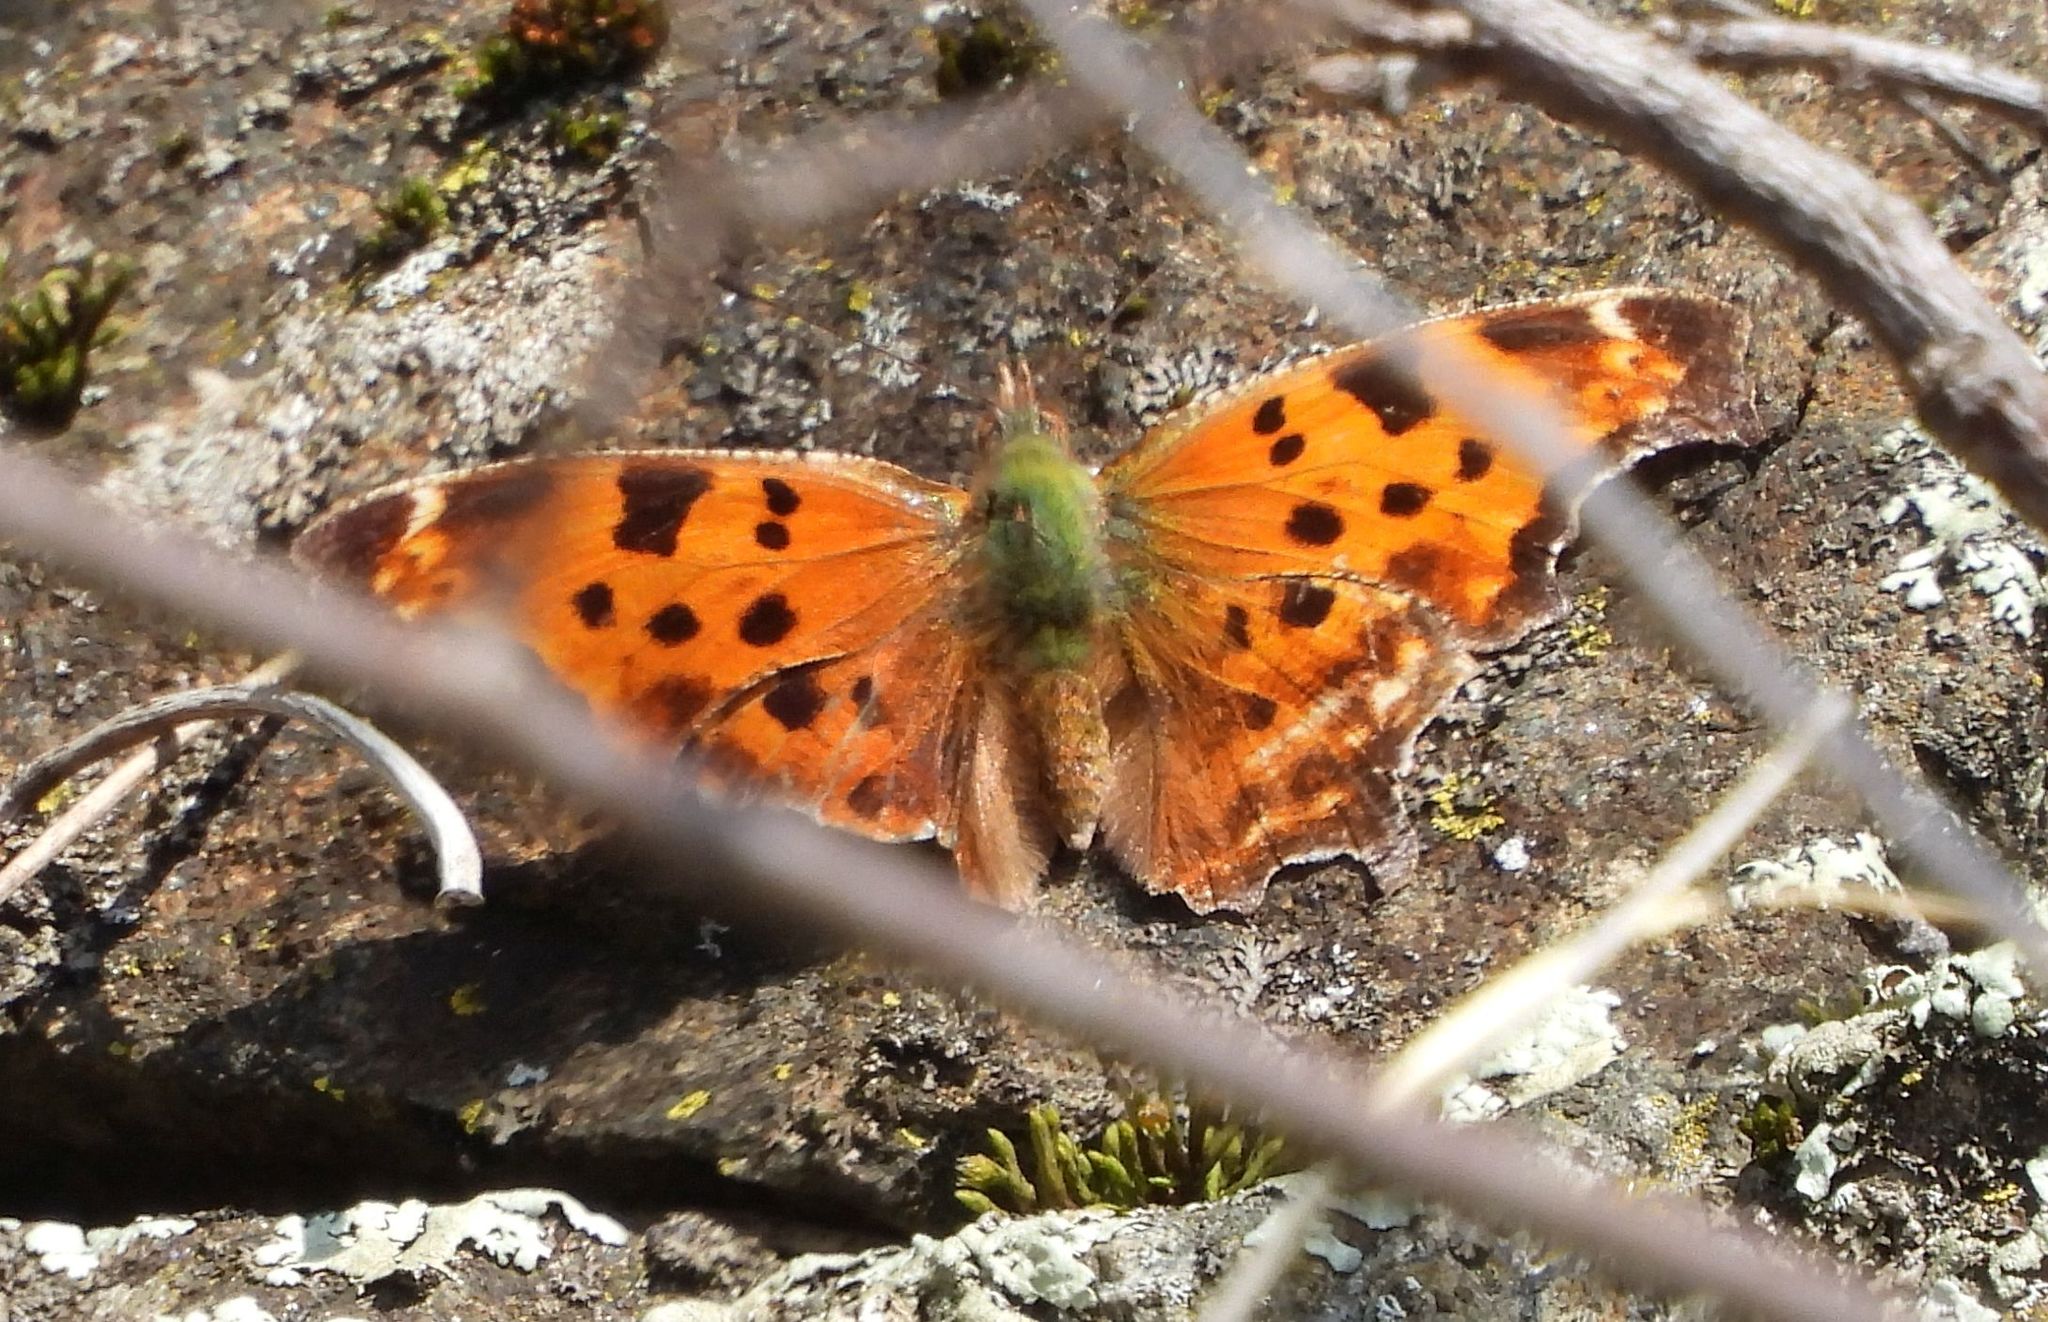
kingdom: Animalia
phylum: Arthropoda
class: Insecta
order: Lepidoptera
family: Nymphalidae
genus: Polygonia
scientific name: Polygonia comma
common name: Eastern comma
